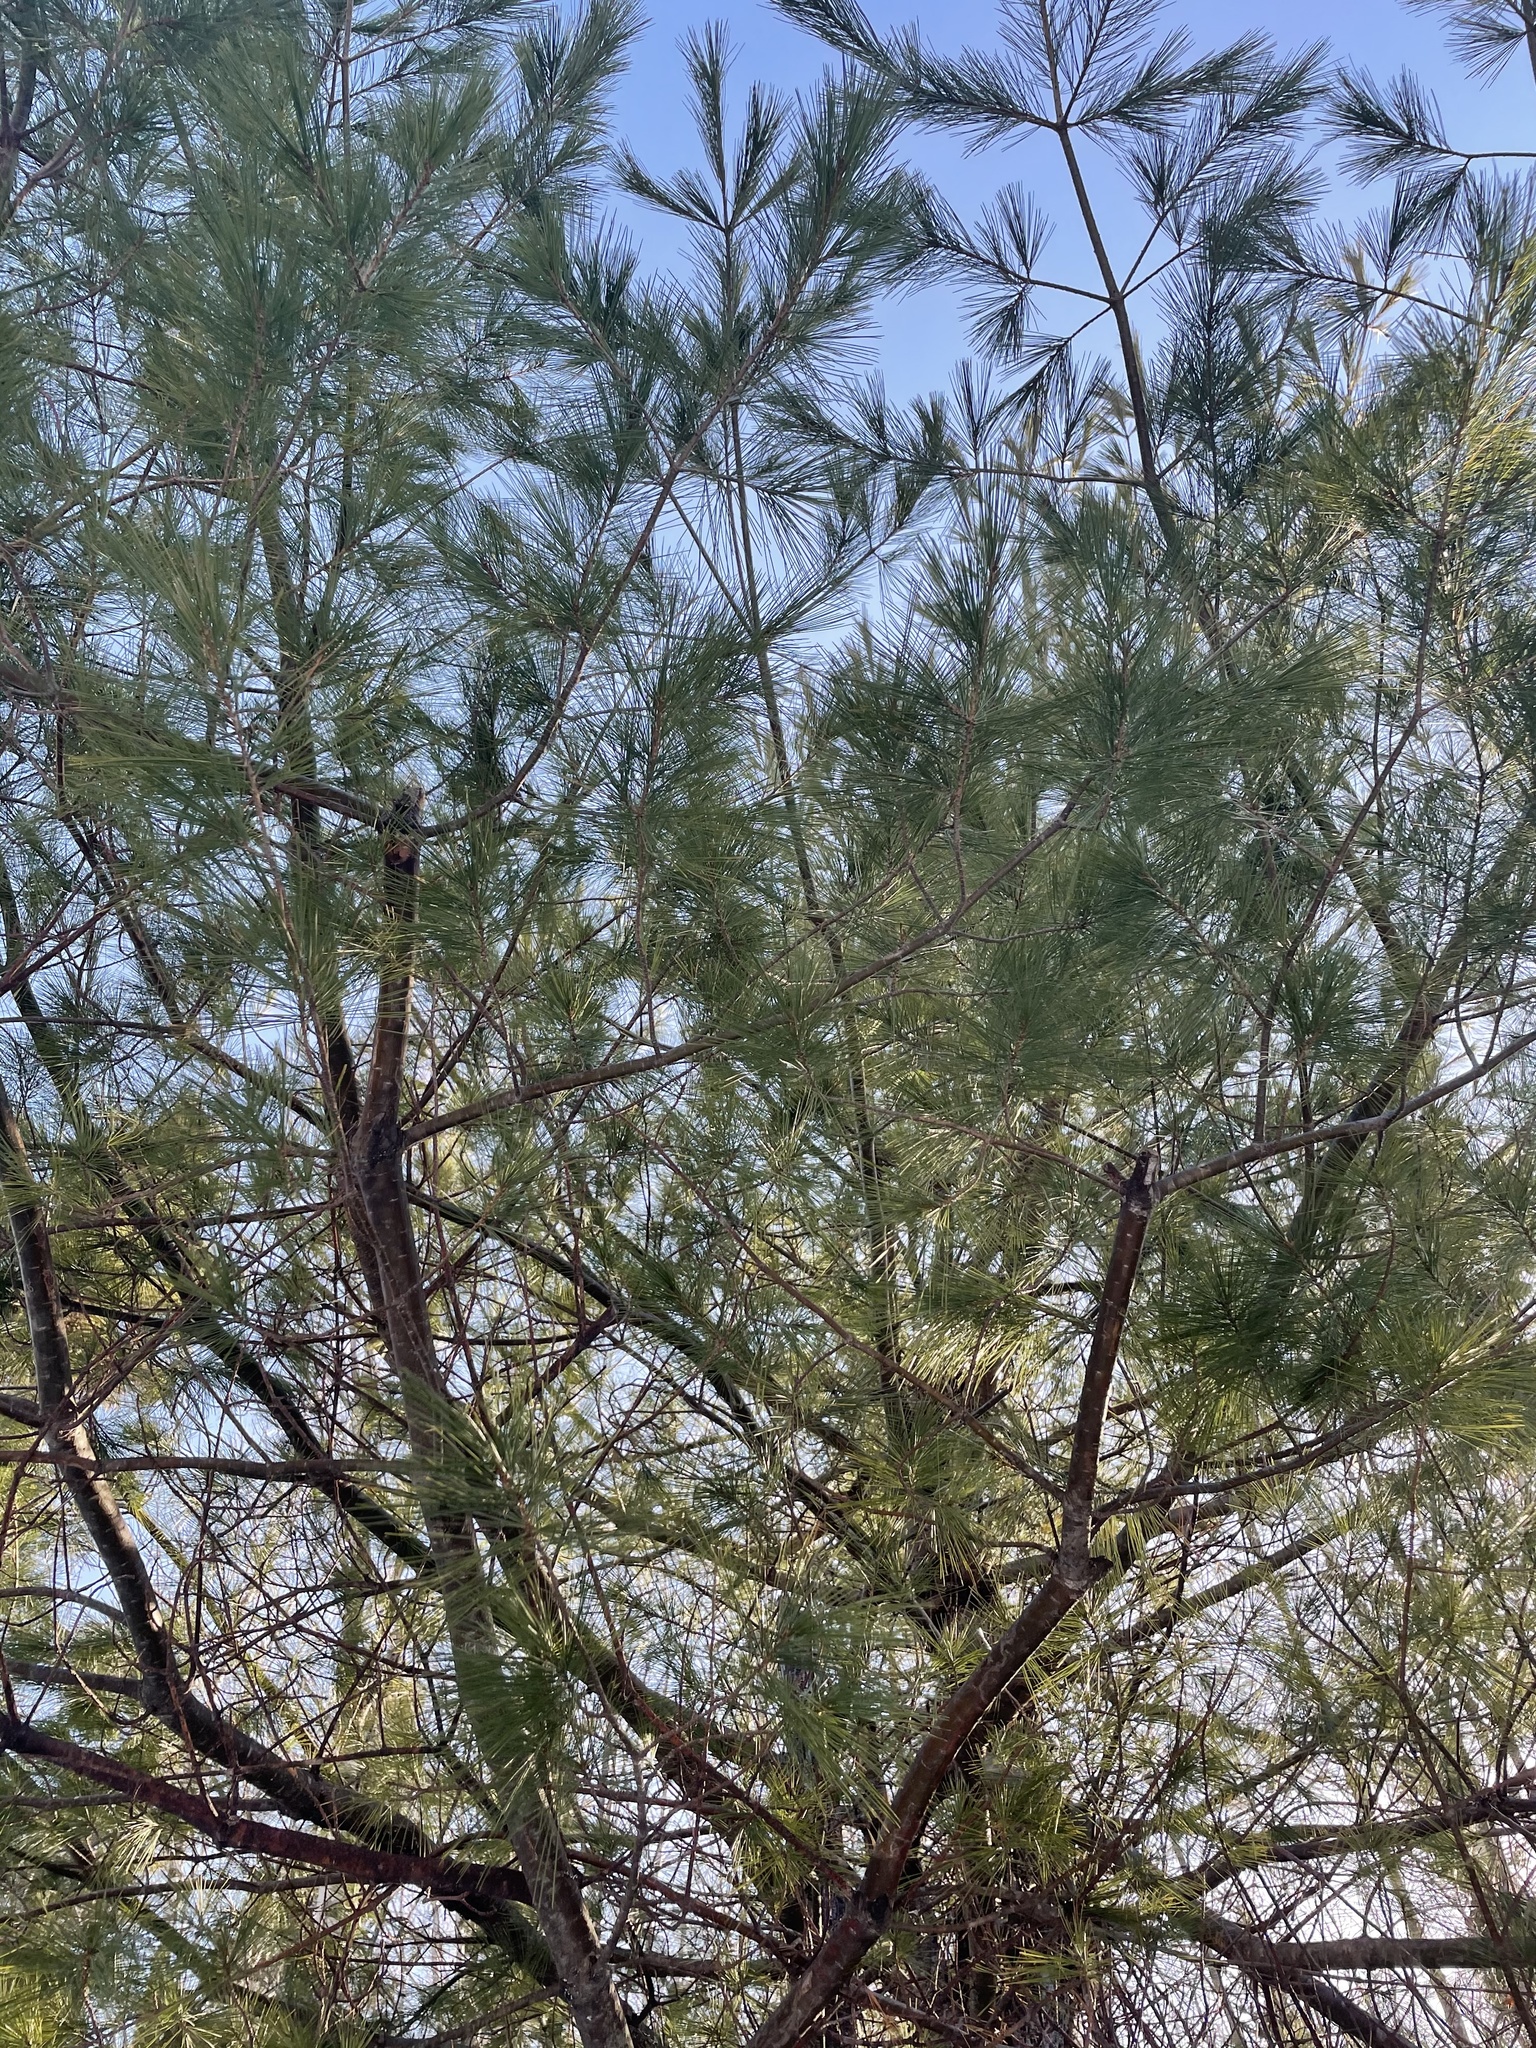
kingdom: Plantae
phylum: Tracheophyta
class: Pinopsida
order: Pinales
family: Pinaceae
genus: Pinus
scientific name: Pinus strobus
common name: Weymouth pine
